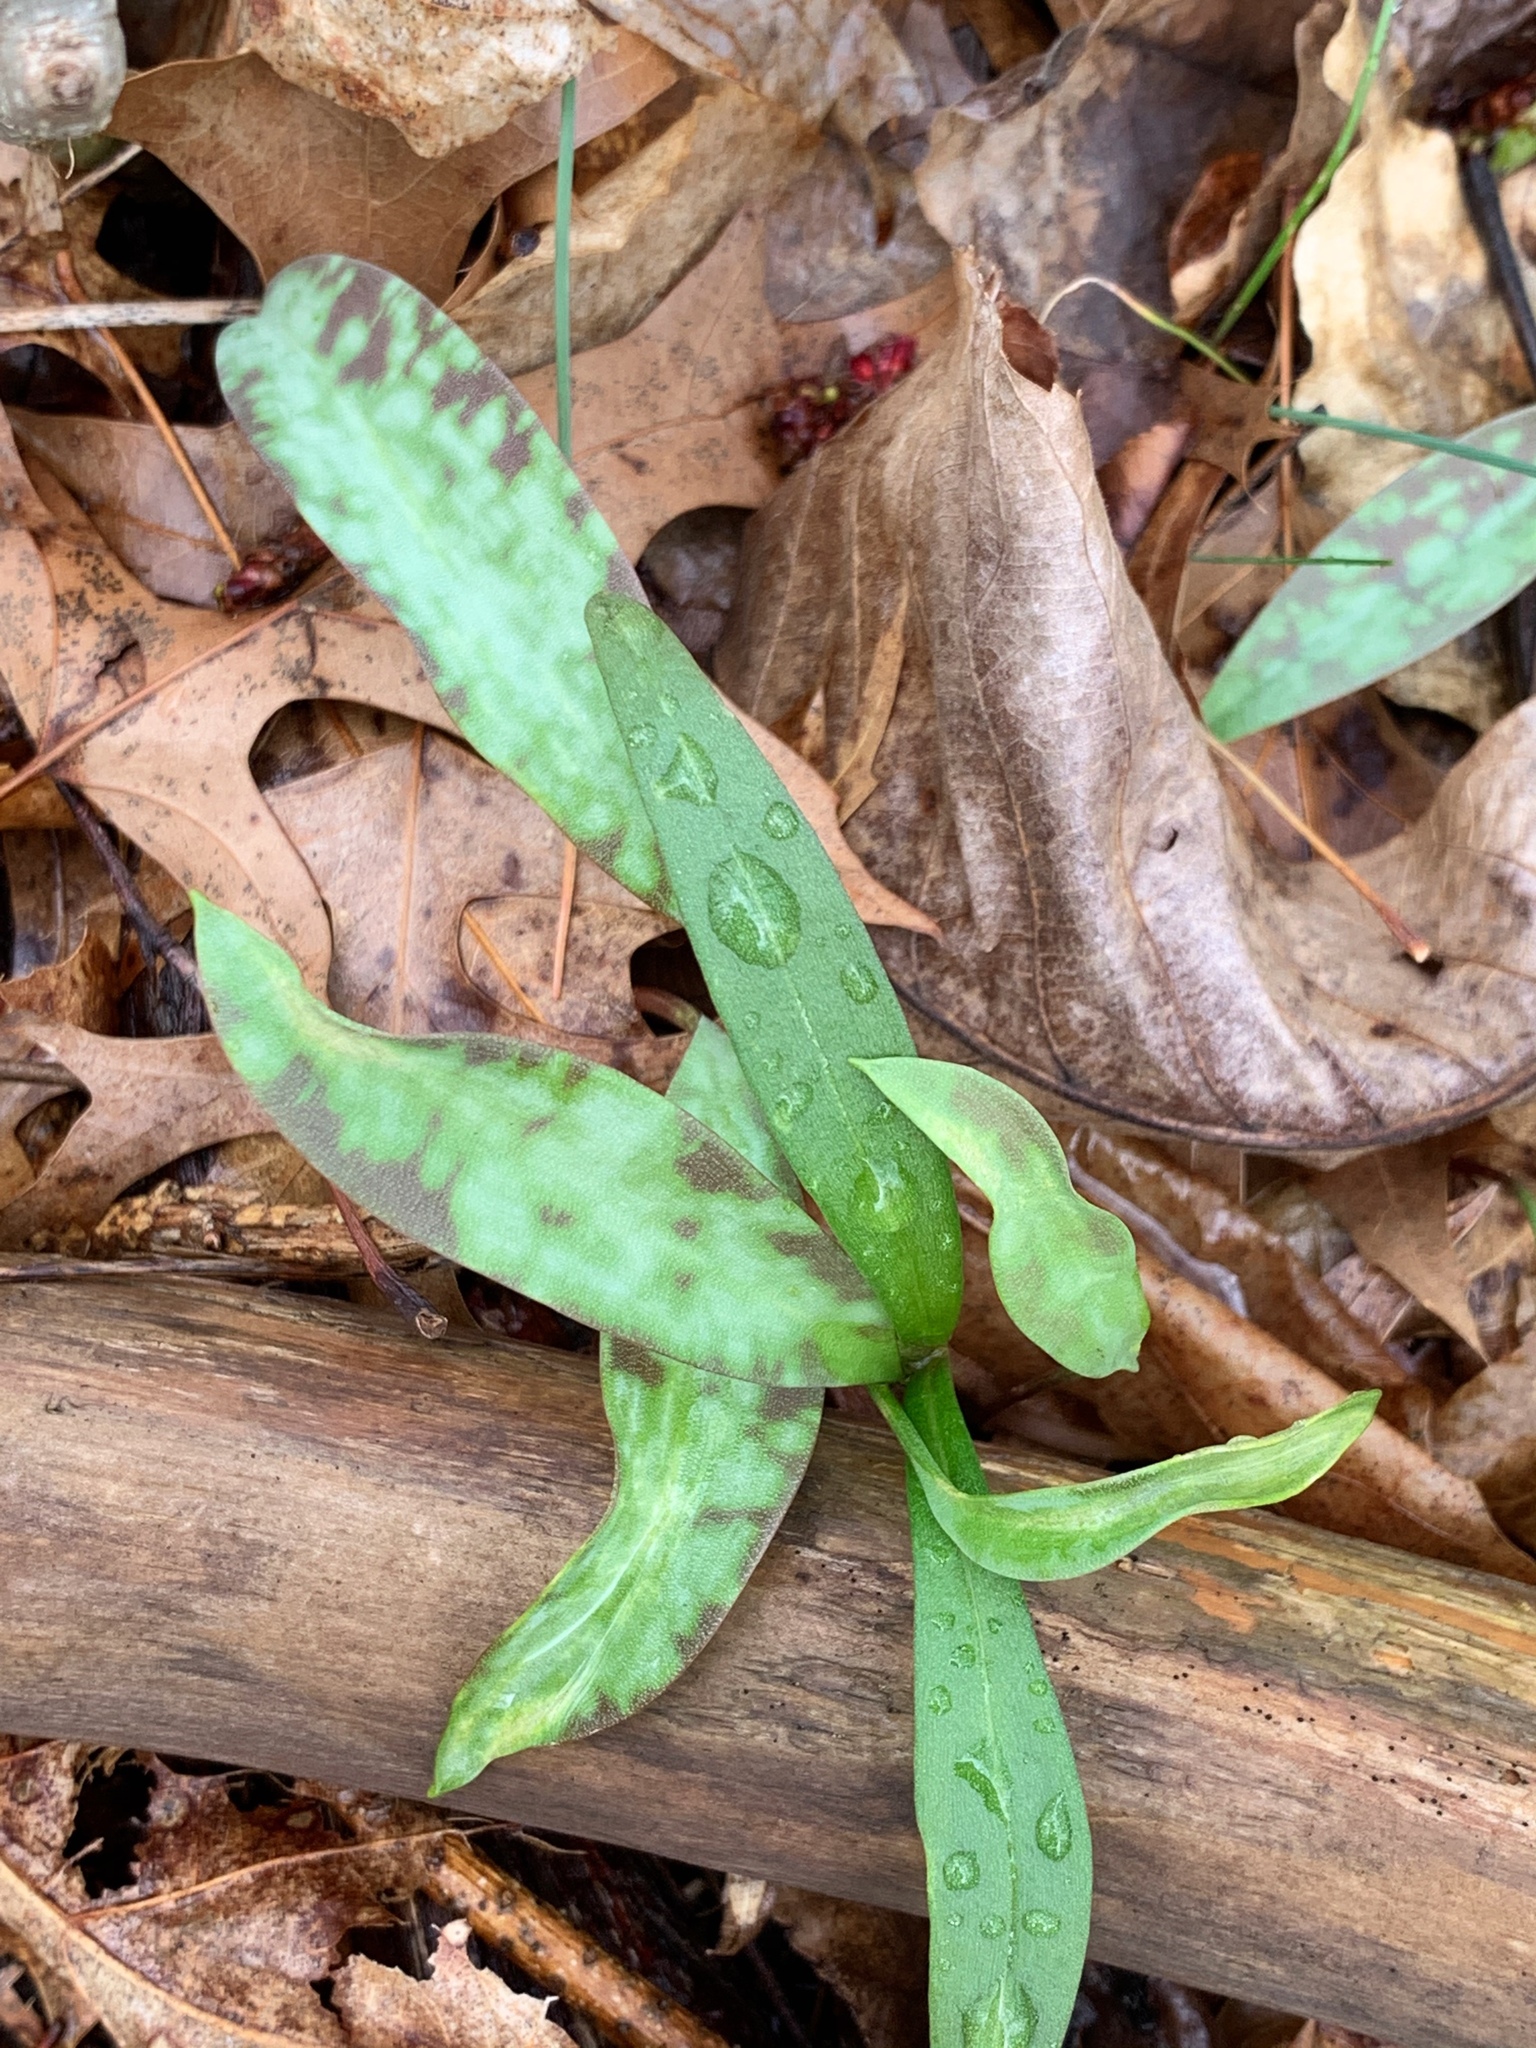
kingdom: Plantae
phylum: Tracheophyta
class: Liliopsida
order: Liliales
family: Liliaceae
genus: Erythronium
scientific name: Erythronium americanum
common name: Yellow adder's-tongue
